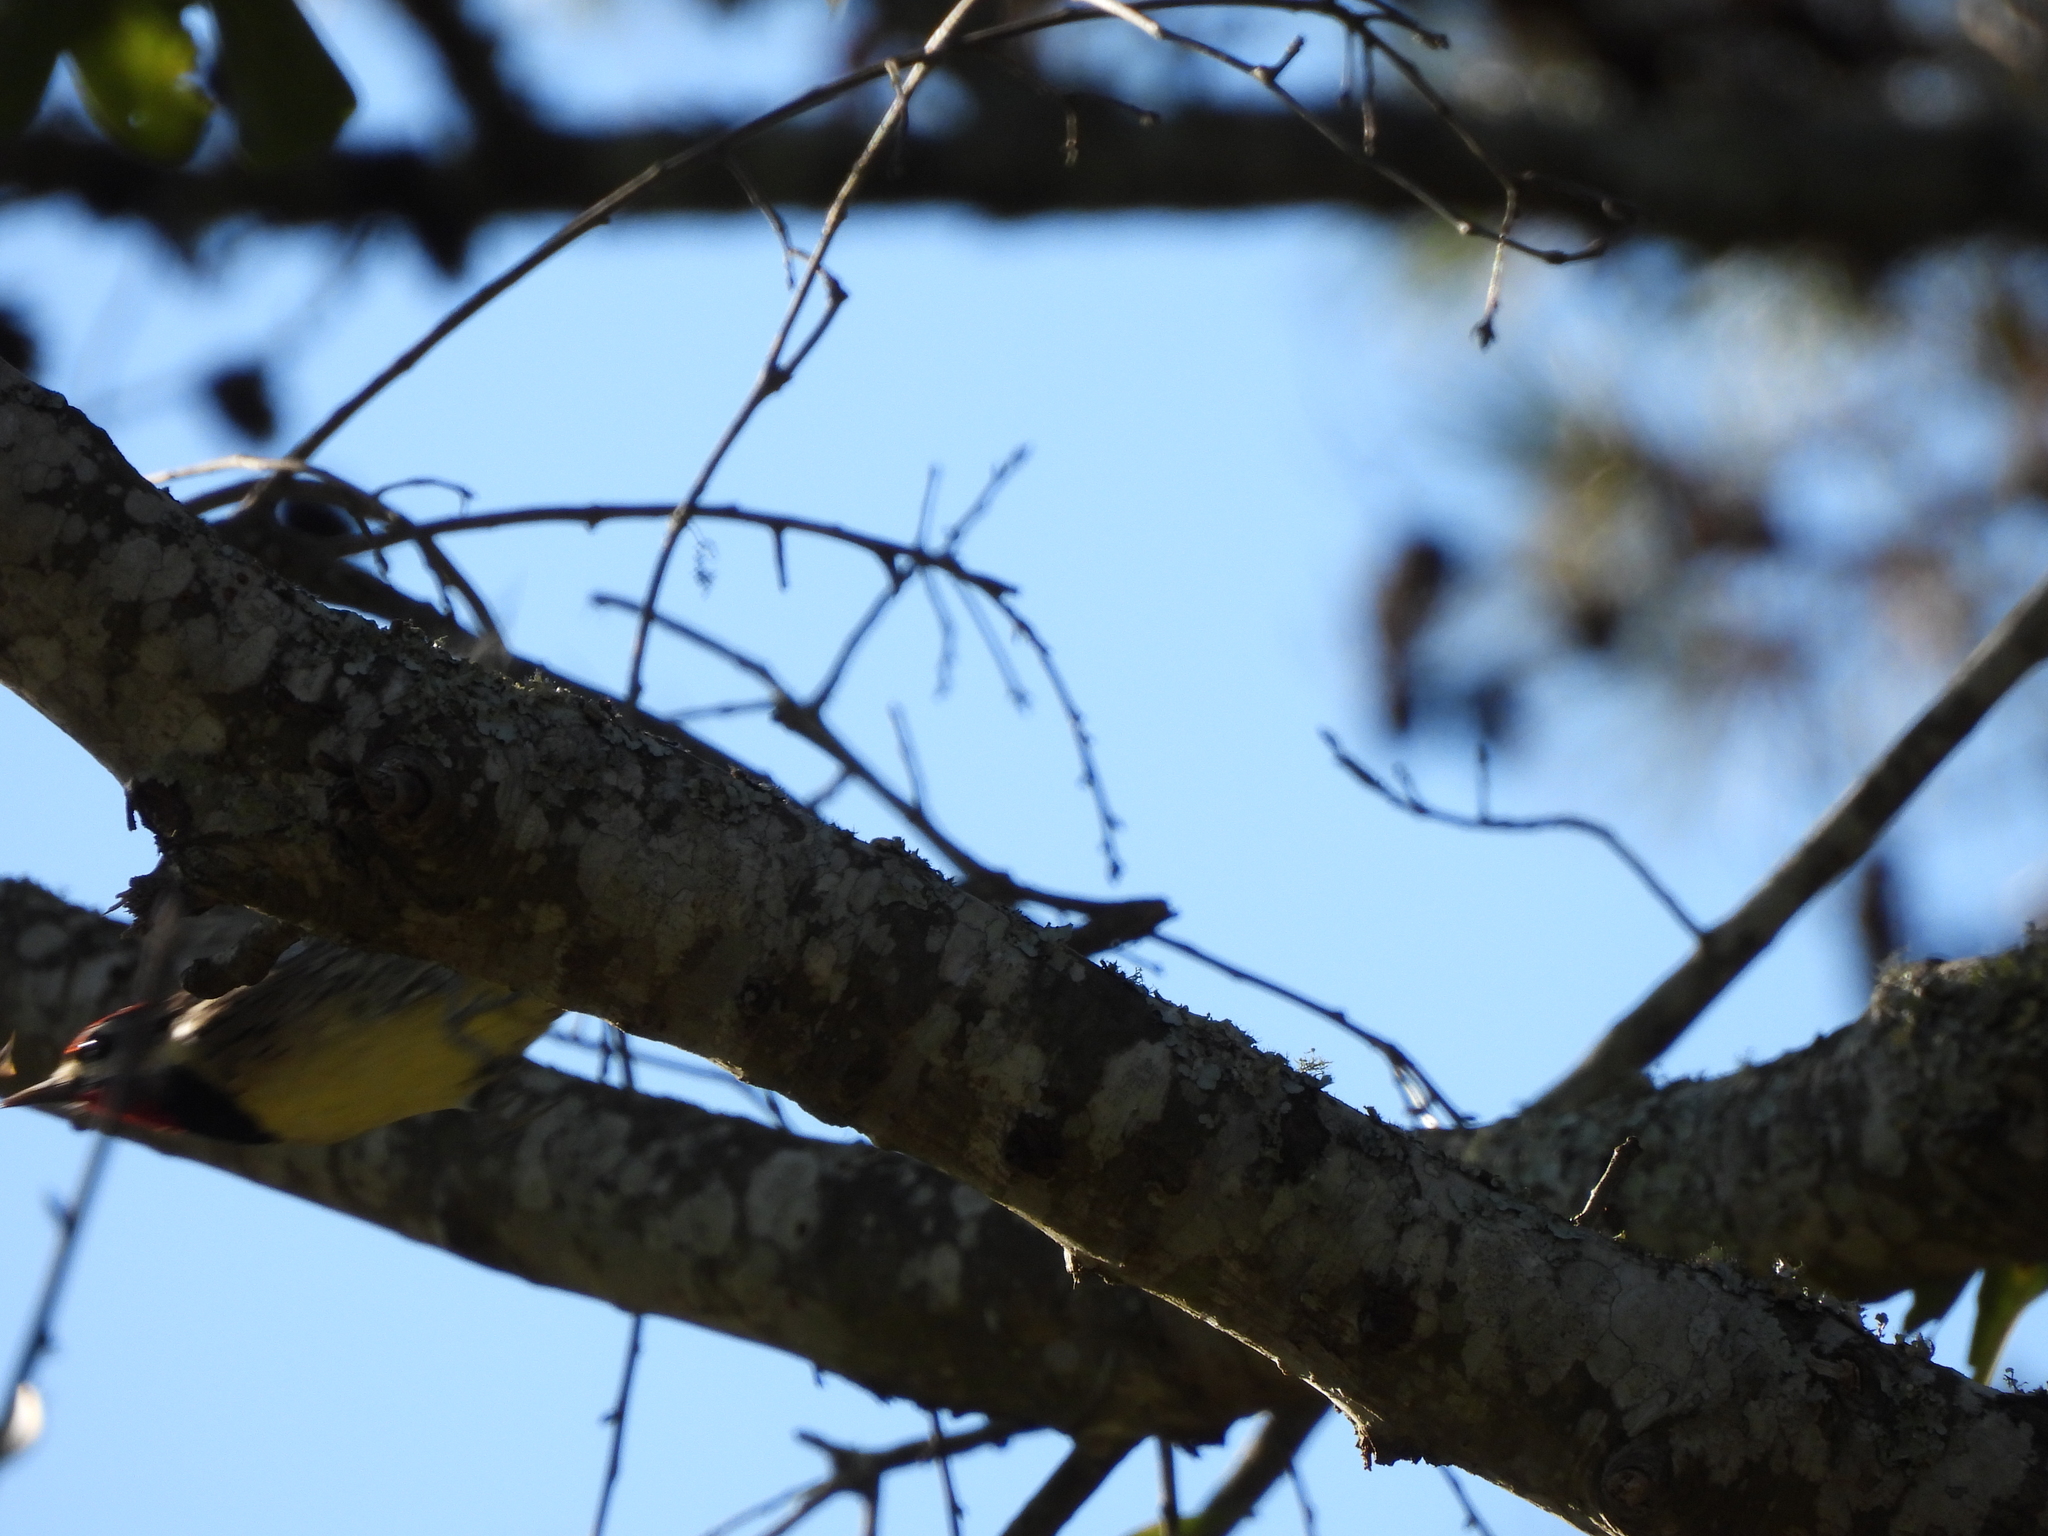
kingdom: Animalia
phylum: Chordata
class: Aves
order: Piciformes
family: Picidae
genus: Sphyrapicus
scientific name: Sphyrapicus varius
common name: Yellow-bellied sapsucker
